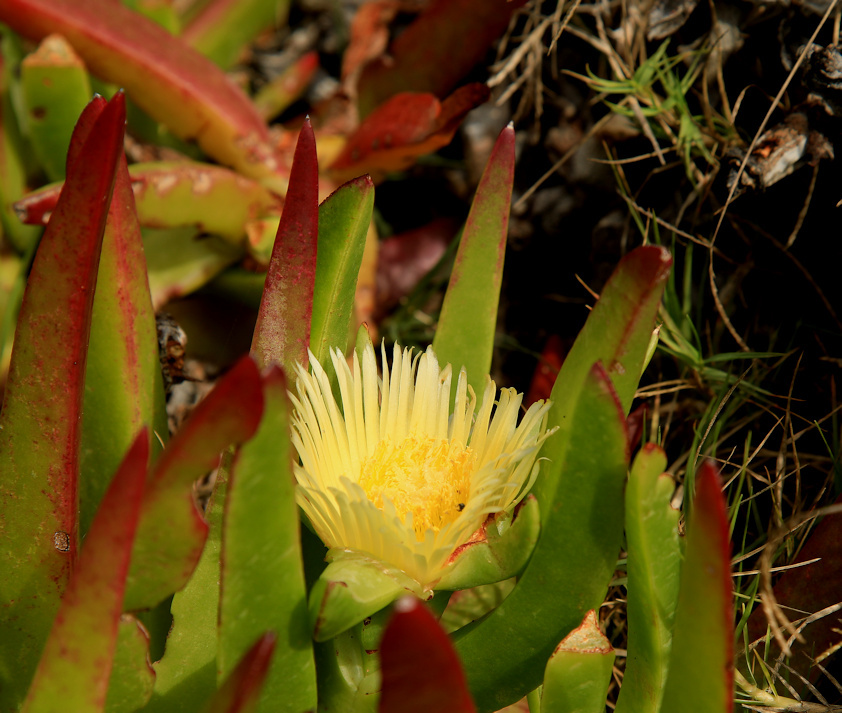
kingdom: Plantae
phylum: Tracheophyta
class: Magnoliopsida
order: Caryophyllales
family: Aizoaceae
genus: Carpobrotus
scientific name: Carpobrotus edulis
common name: Hottentot-fig
